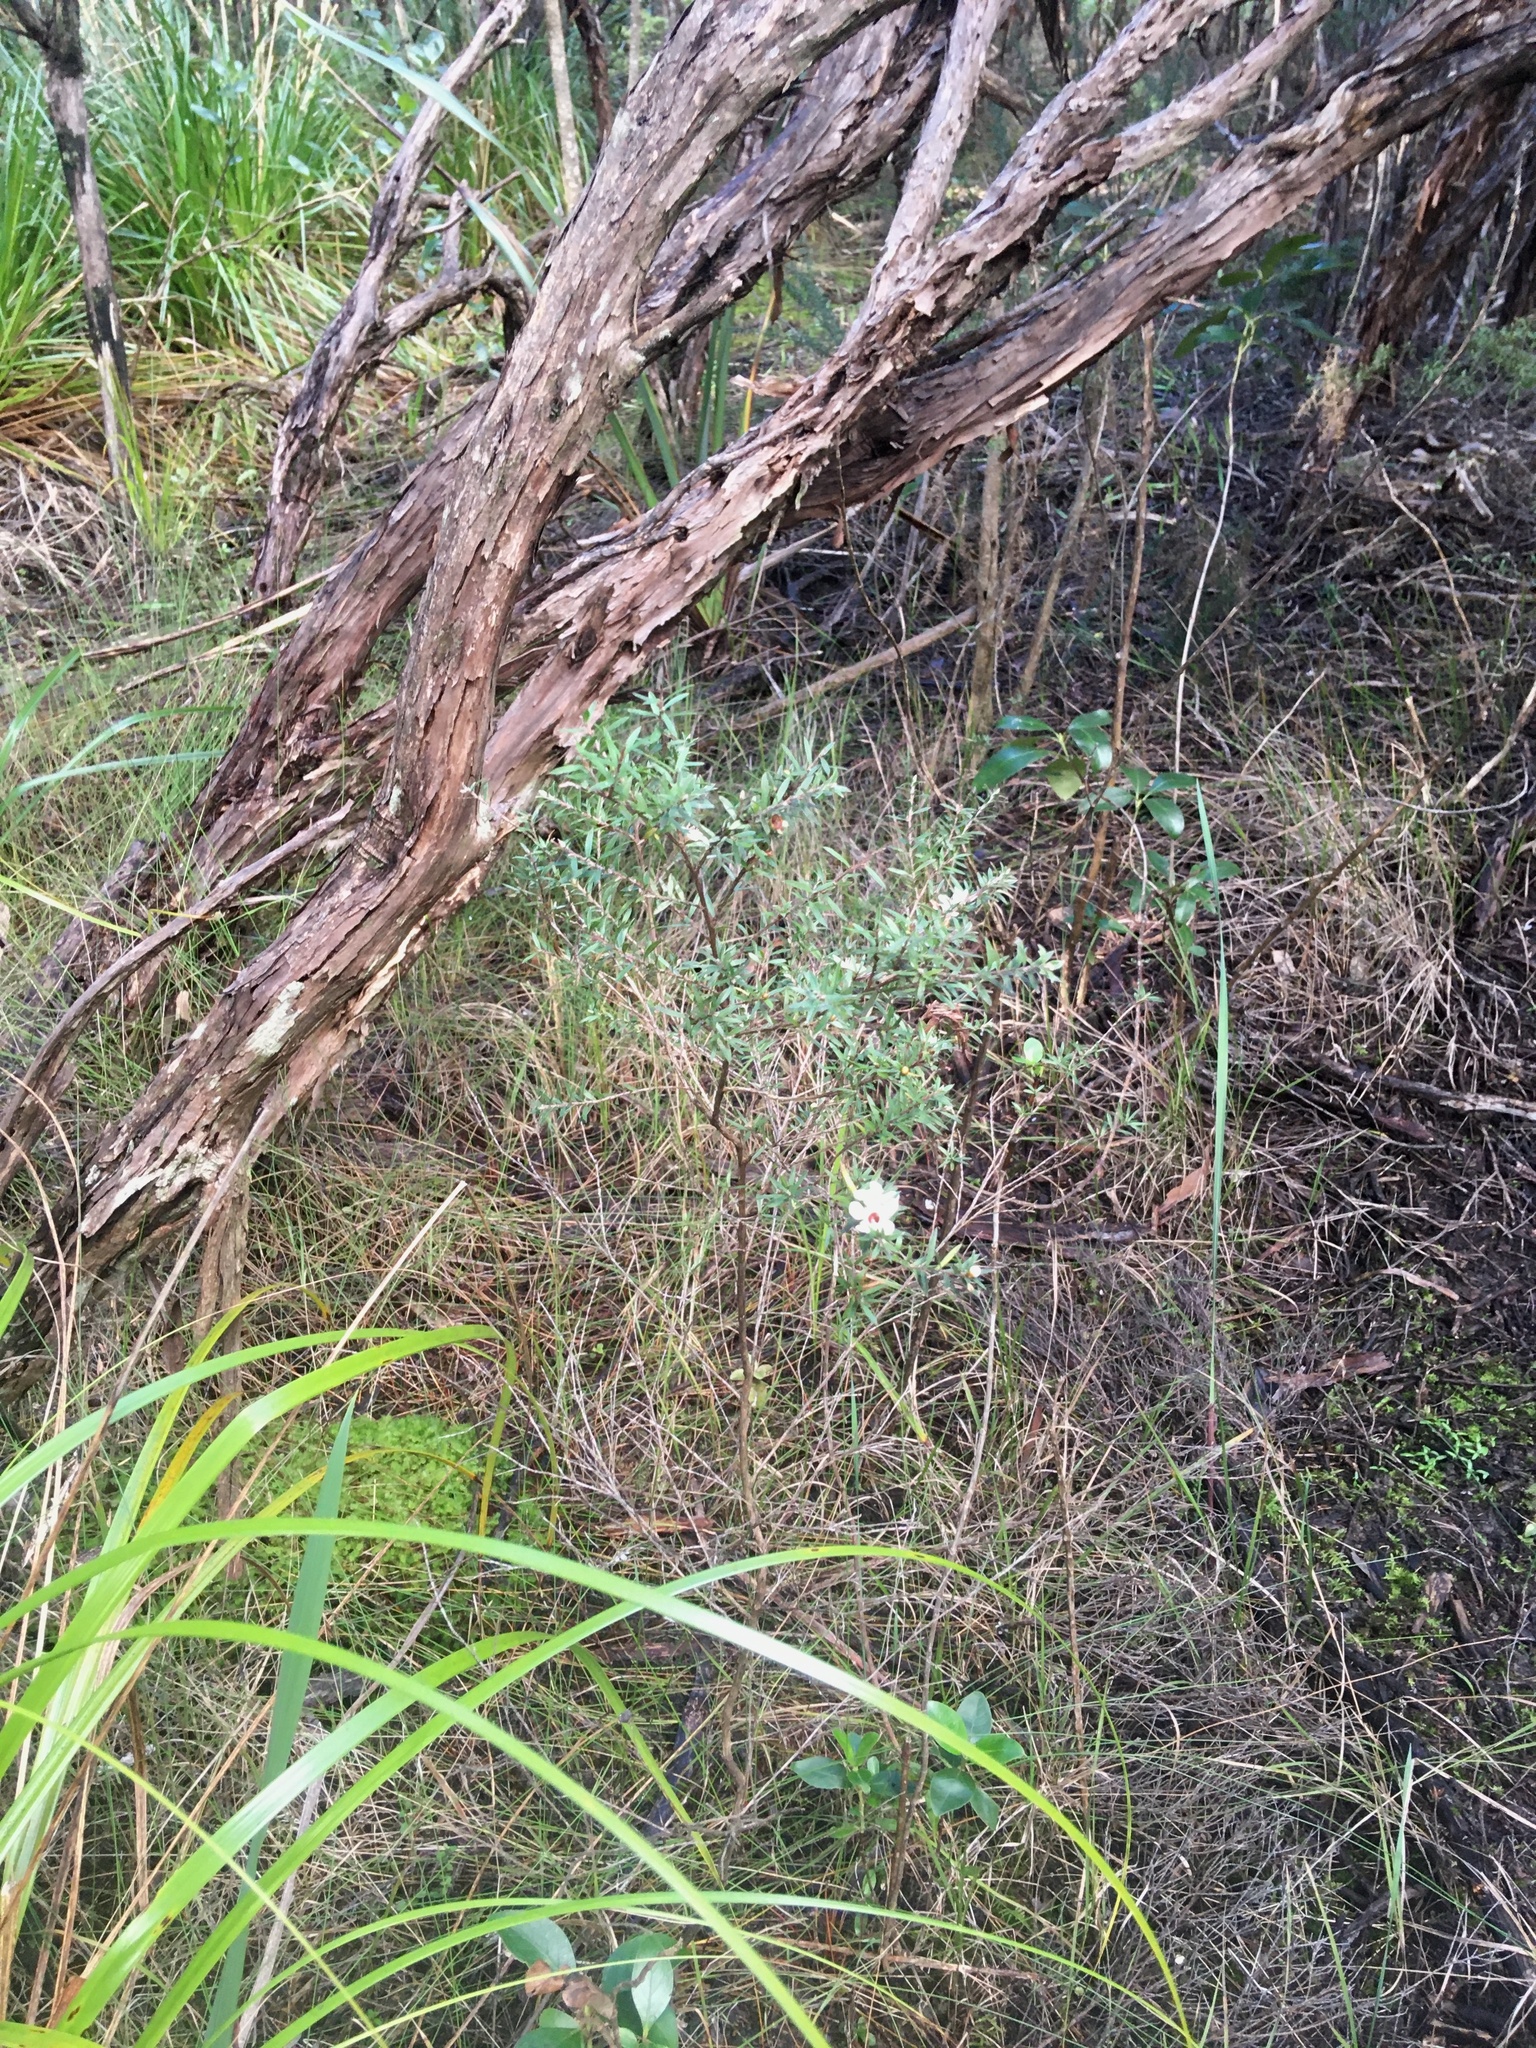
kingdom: Plantae
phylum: Tracheophyta
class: Magnoliopsida
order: Myrtales
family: Myrtaceae
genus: Leptospermum
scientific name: Leptospermum scoparium
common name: Broom tea-tree
